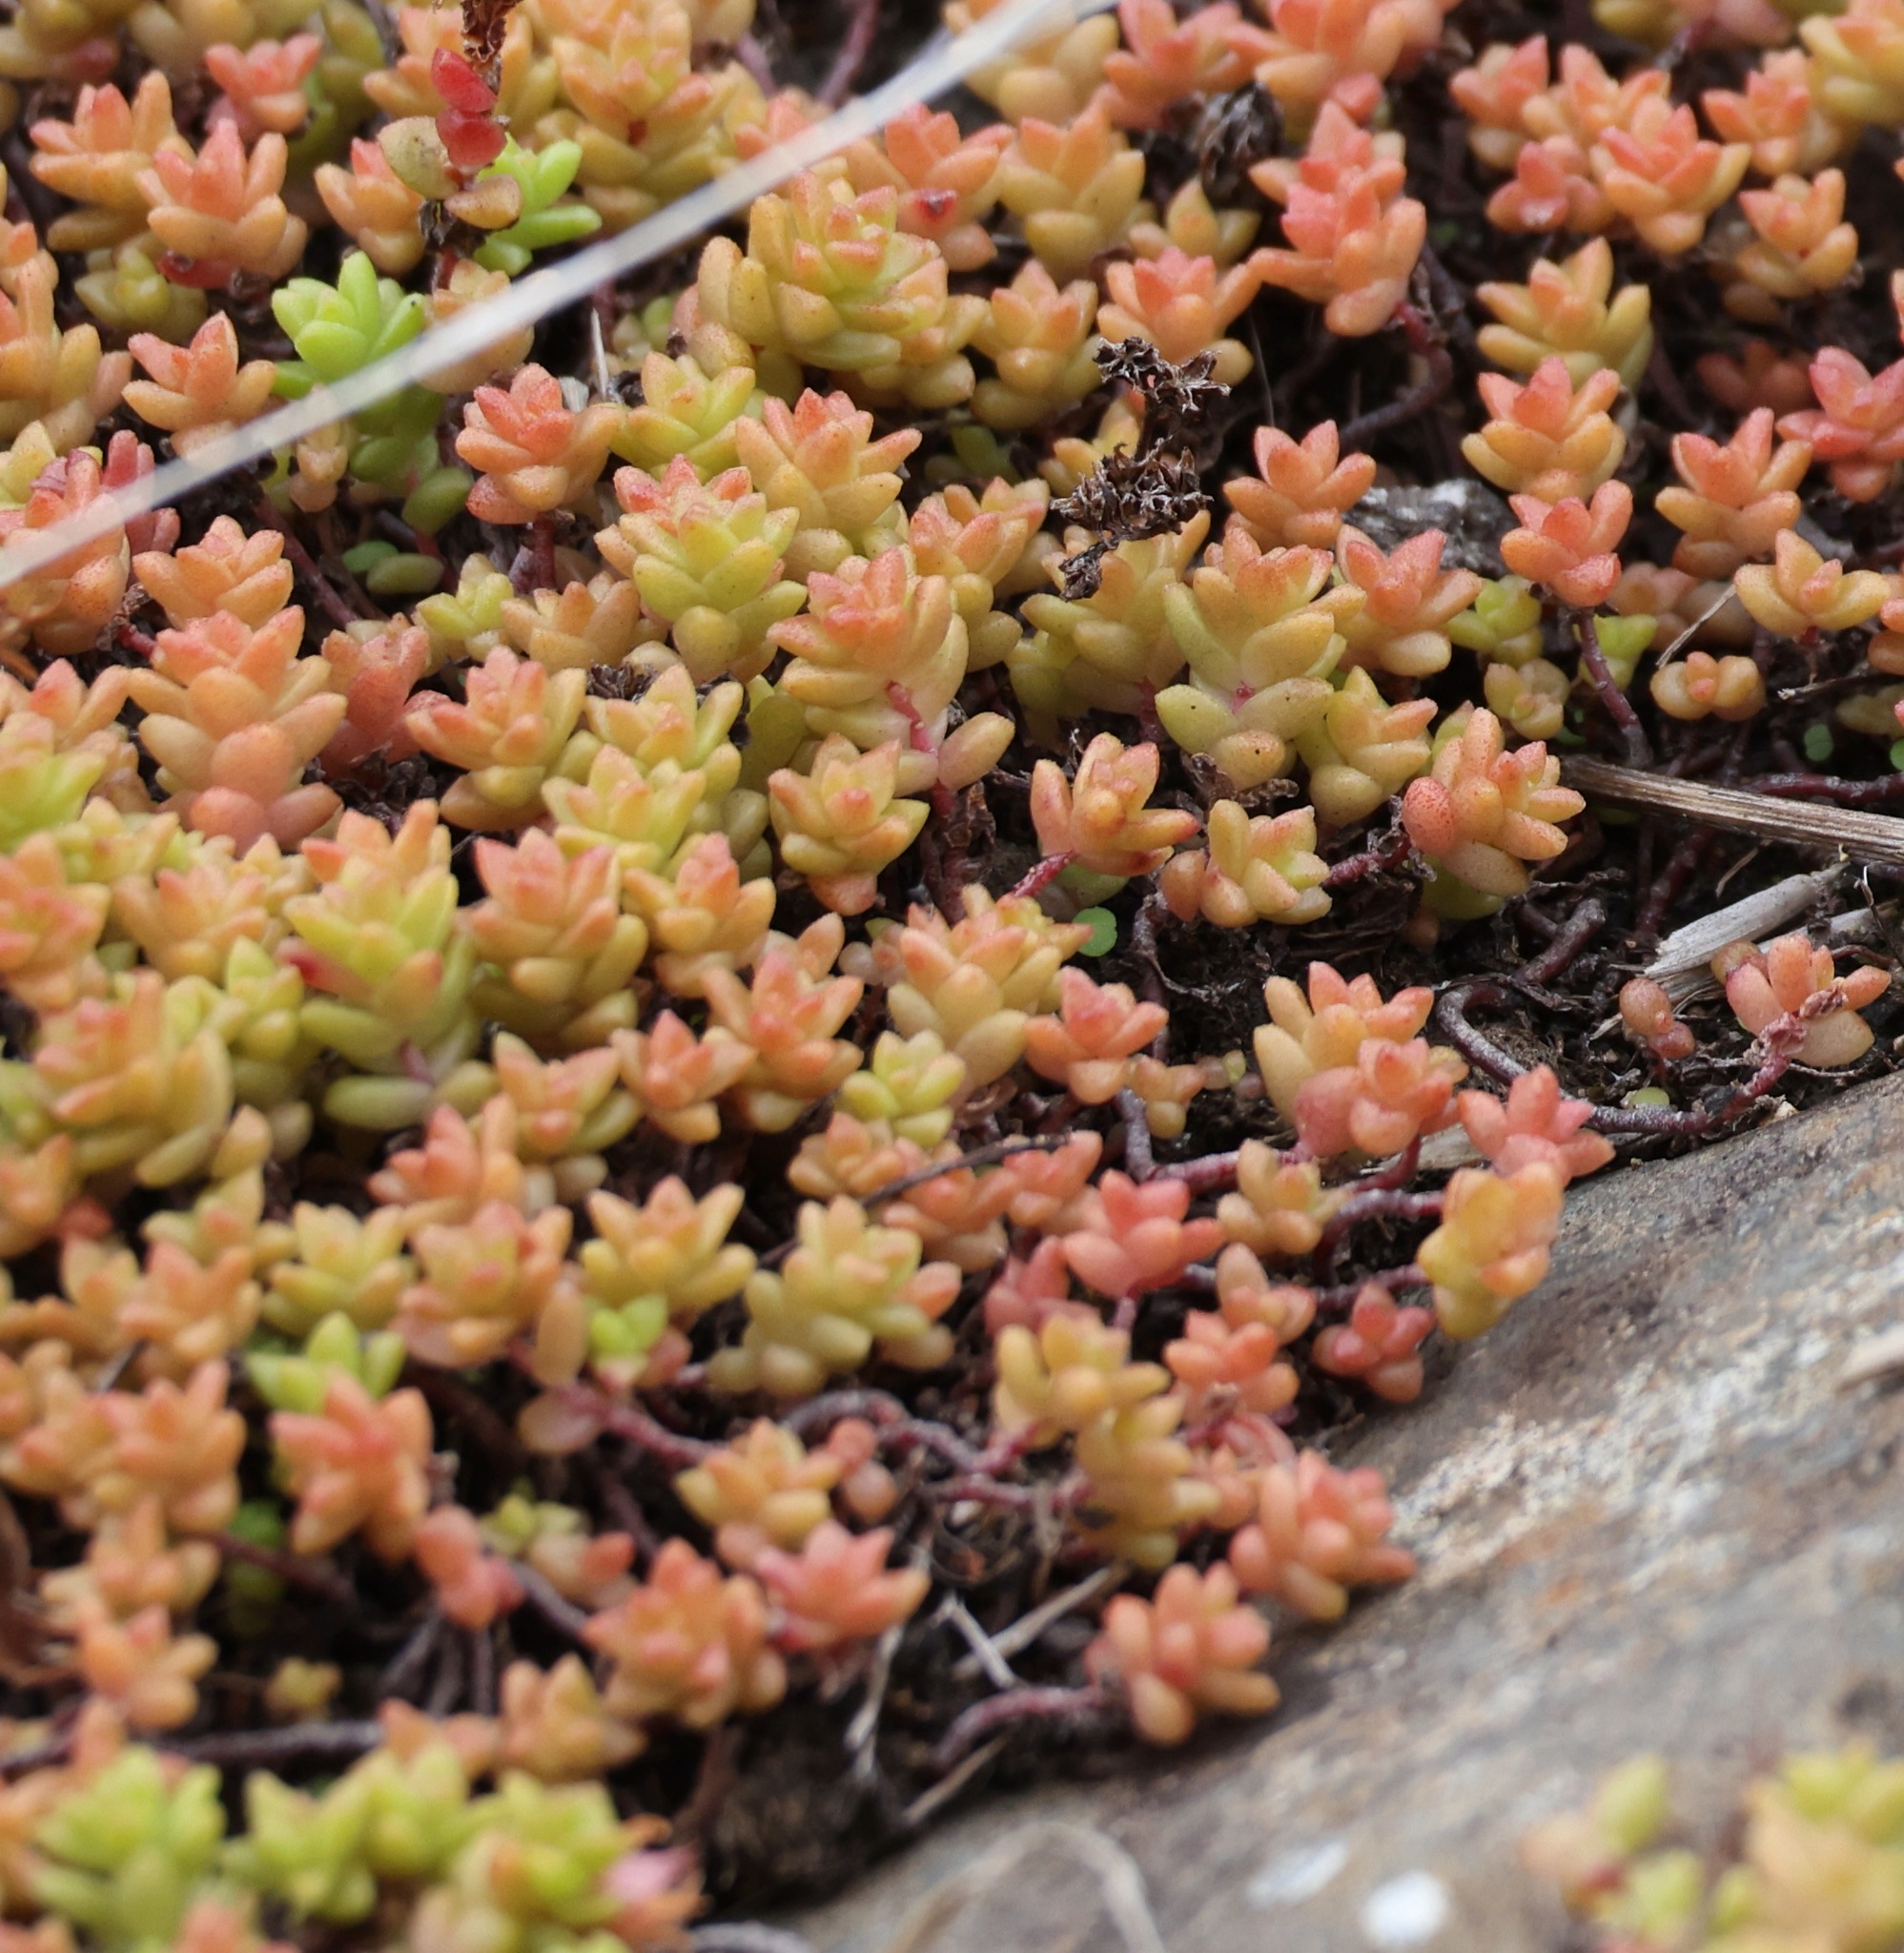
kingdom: Plantae
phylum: Tracheophyta
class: Magnoliopsida
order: Saxifragales
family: Crassulaceae
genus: Sedum
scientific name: Sedum anglicum
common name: English stonecrop
